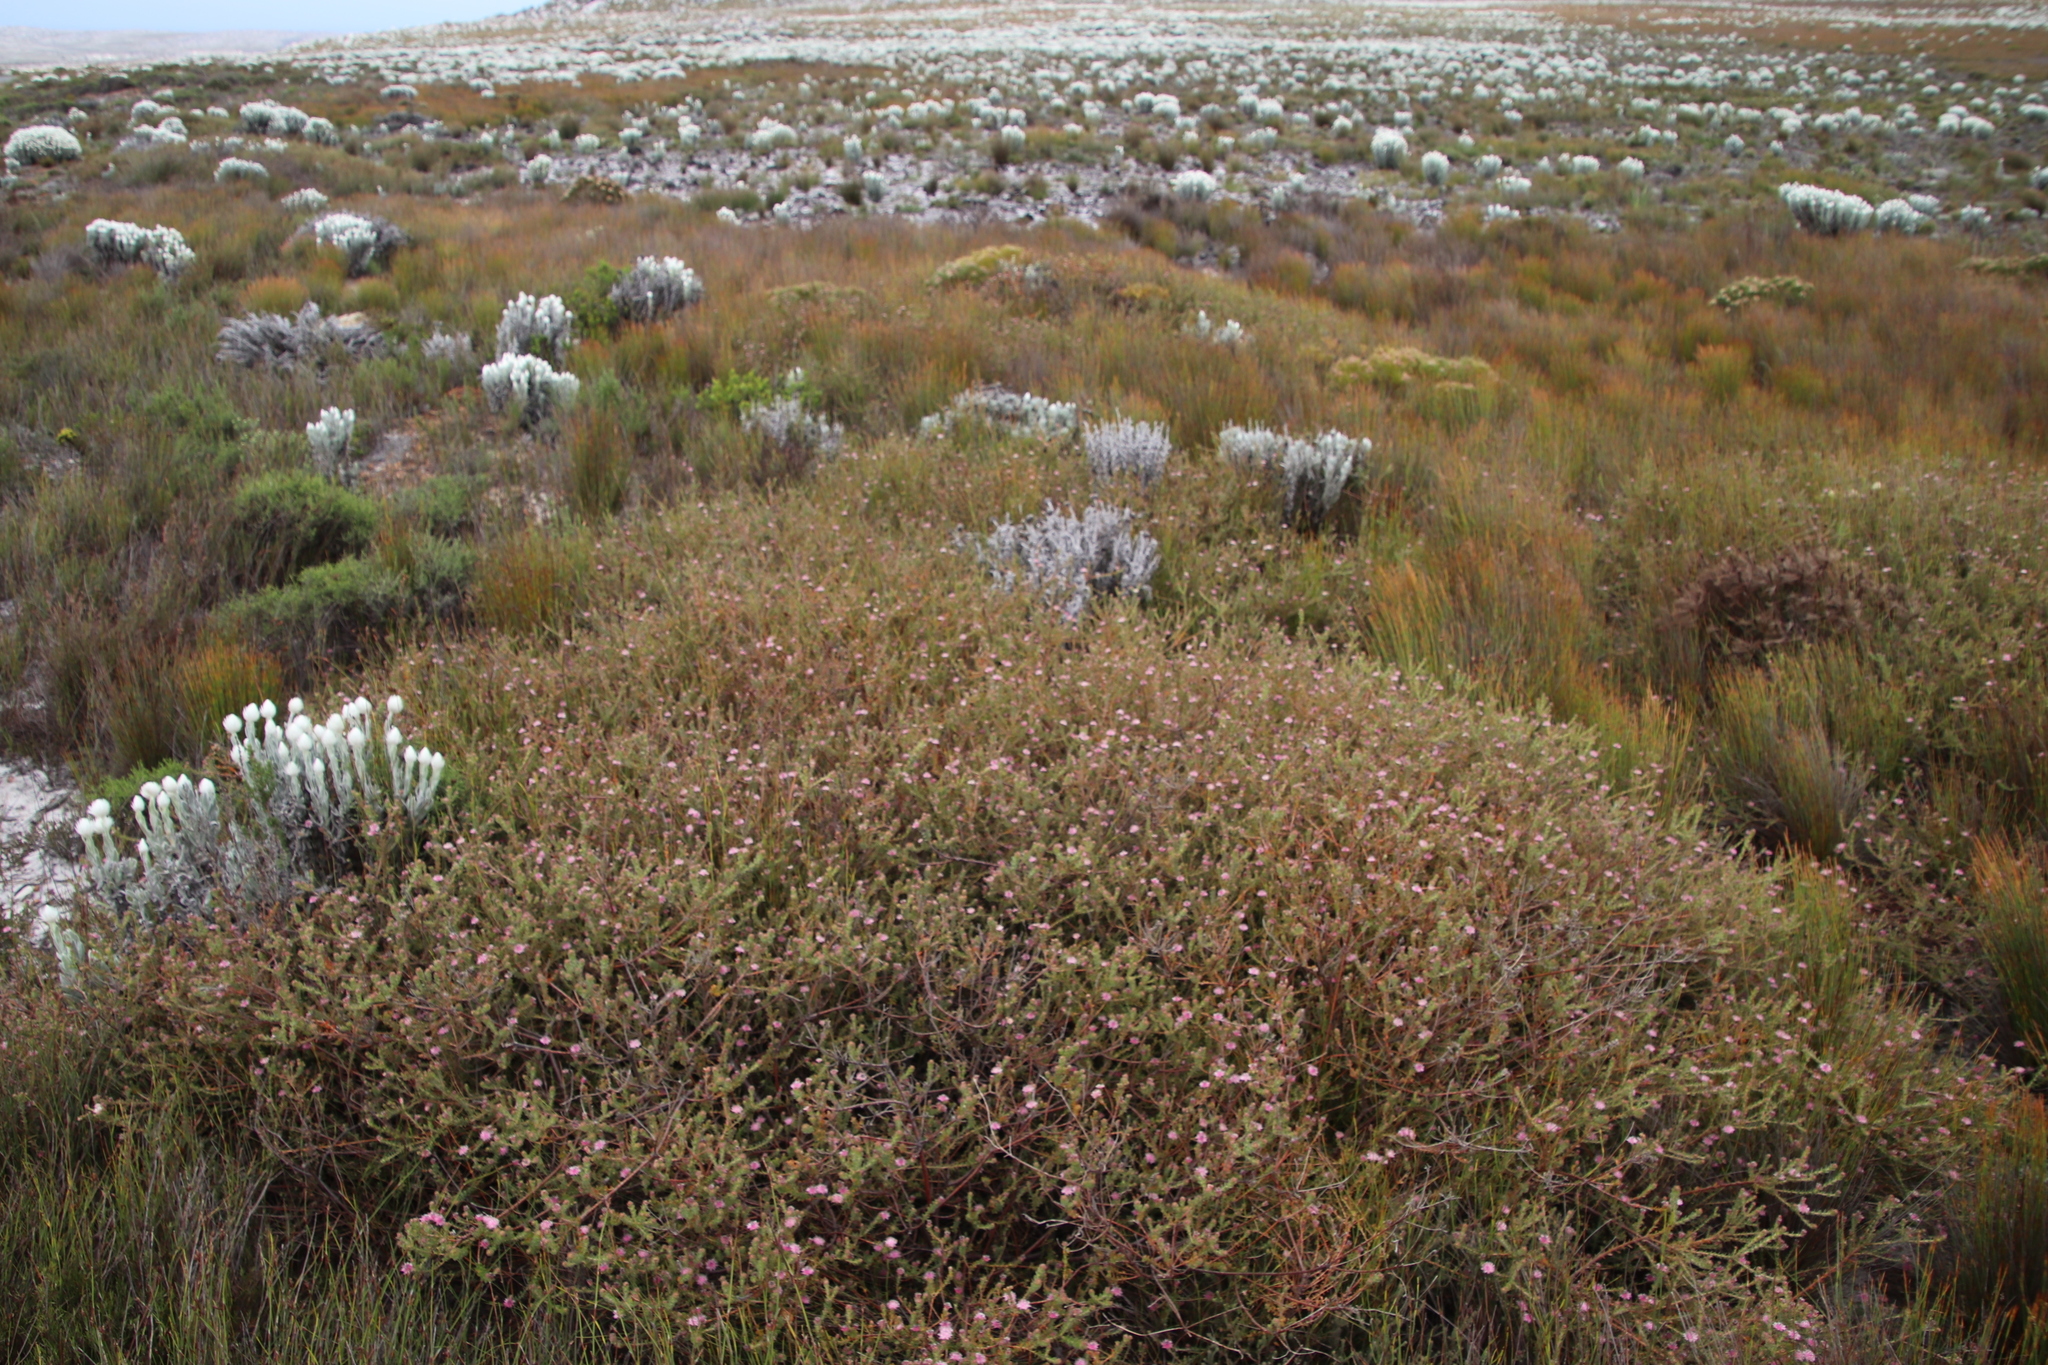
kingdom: Plantae
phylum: Tracheophyta
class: Magnoliopsida
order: Proteales
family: Proteaceae
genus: Diastella
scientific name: Diastella divaricata
